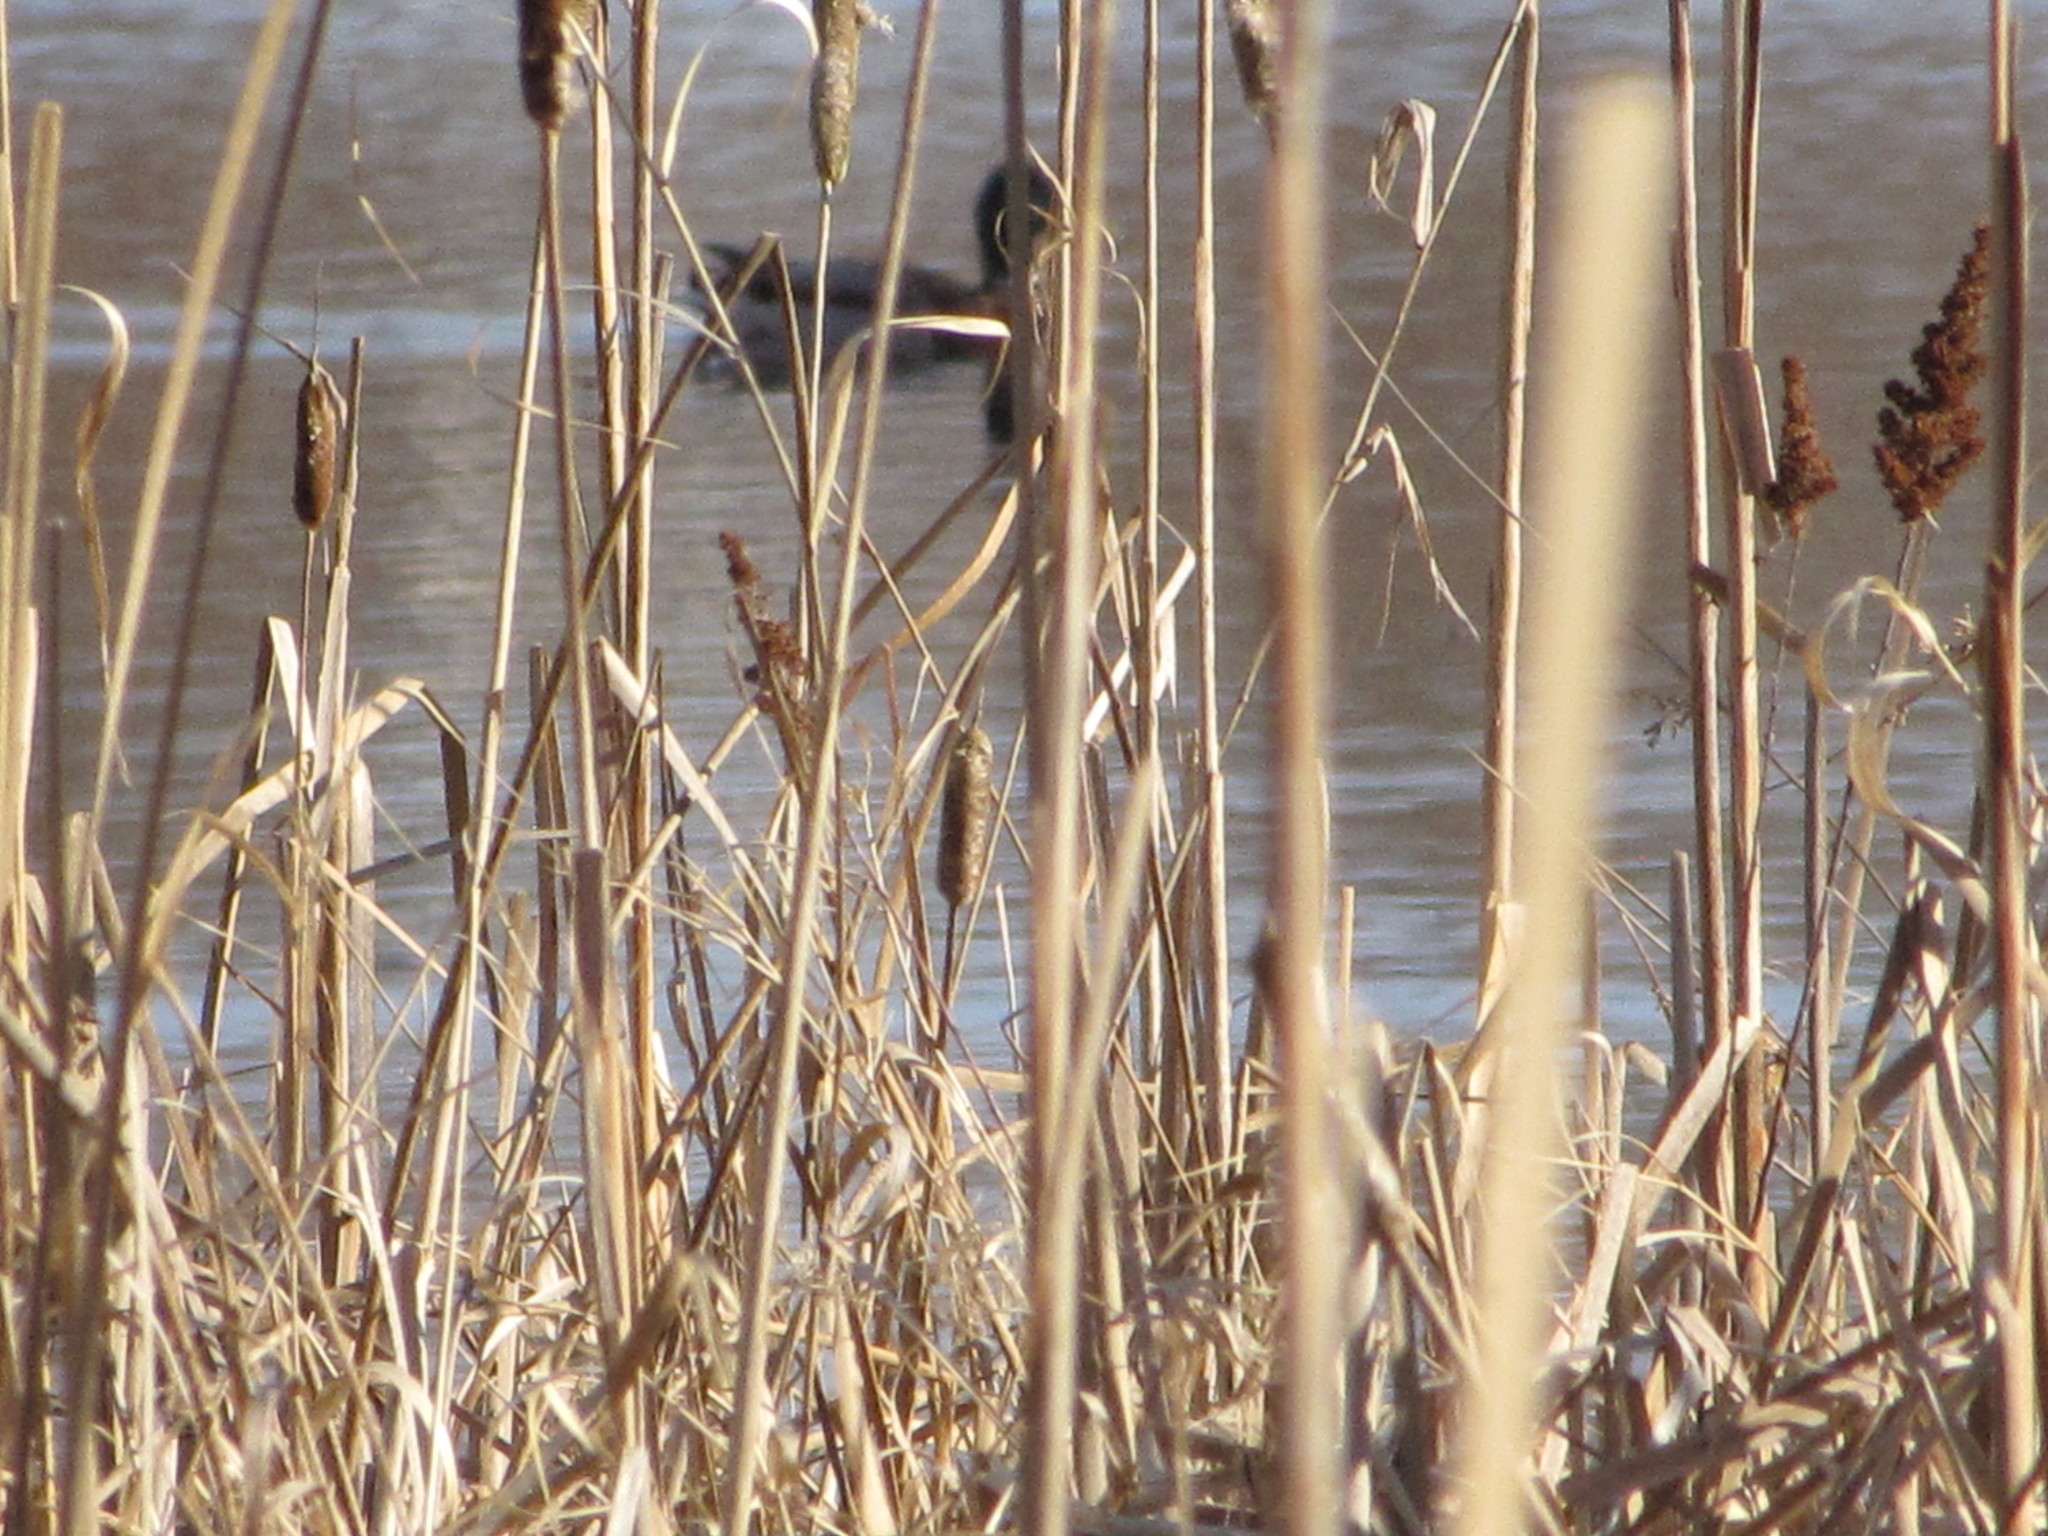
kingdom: Animalia
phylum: Chordata
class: Aves
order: Anseriformes
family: Anatidae
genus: Anas
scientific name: Anas platyrhynchos
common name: Mallard
